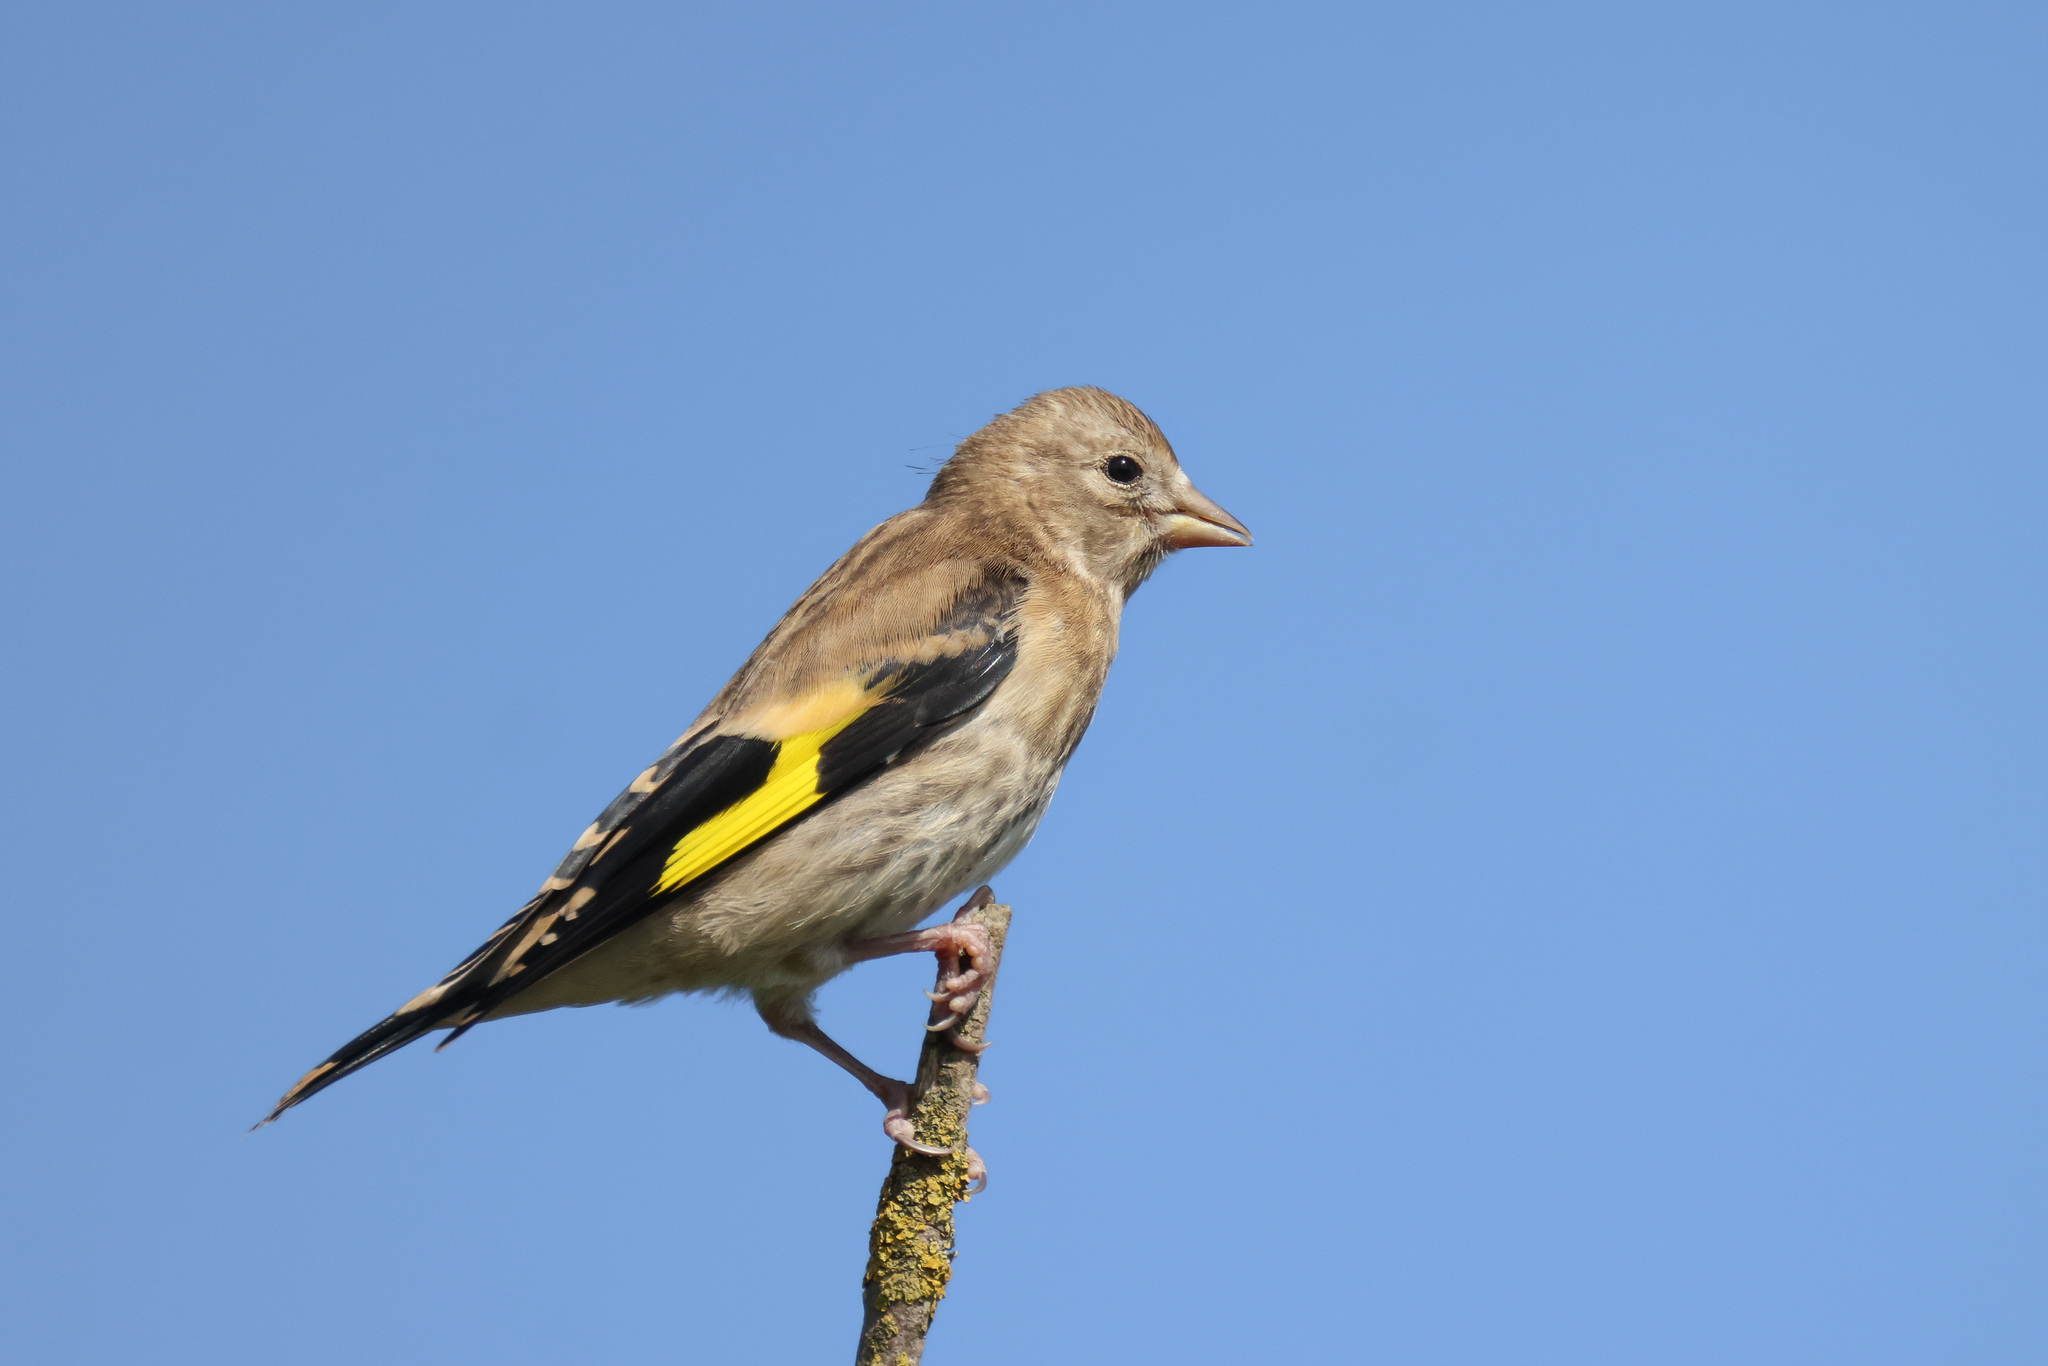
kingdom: Animalia
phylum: Chordata
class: Aves
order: Passeriformes
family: Fringillidae
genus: Carduelis
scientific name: Carduelis carduelis
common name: European goldfinch
